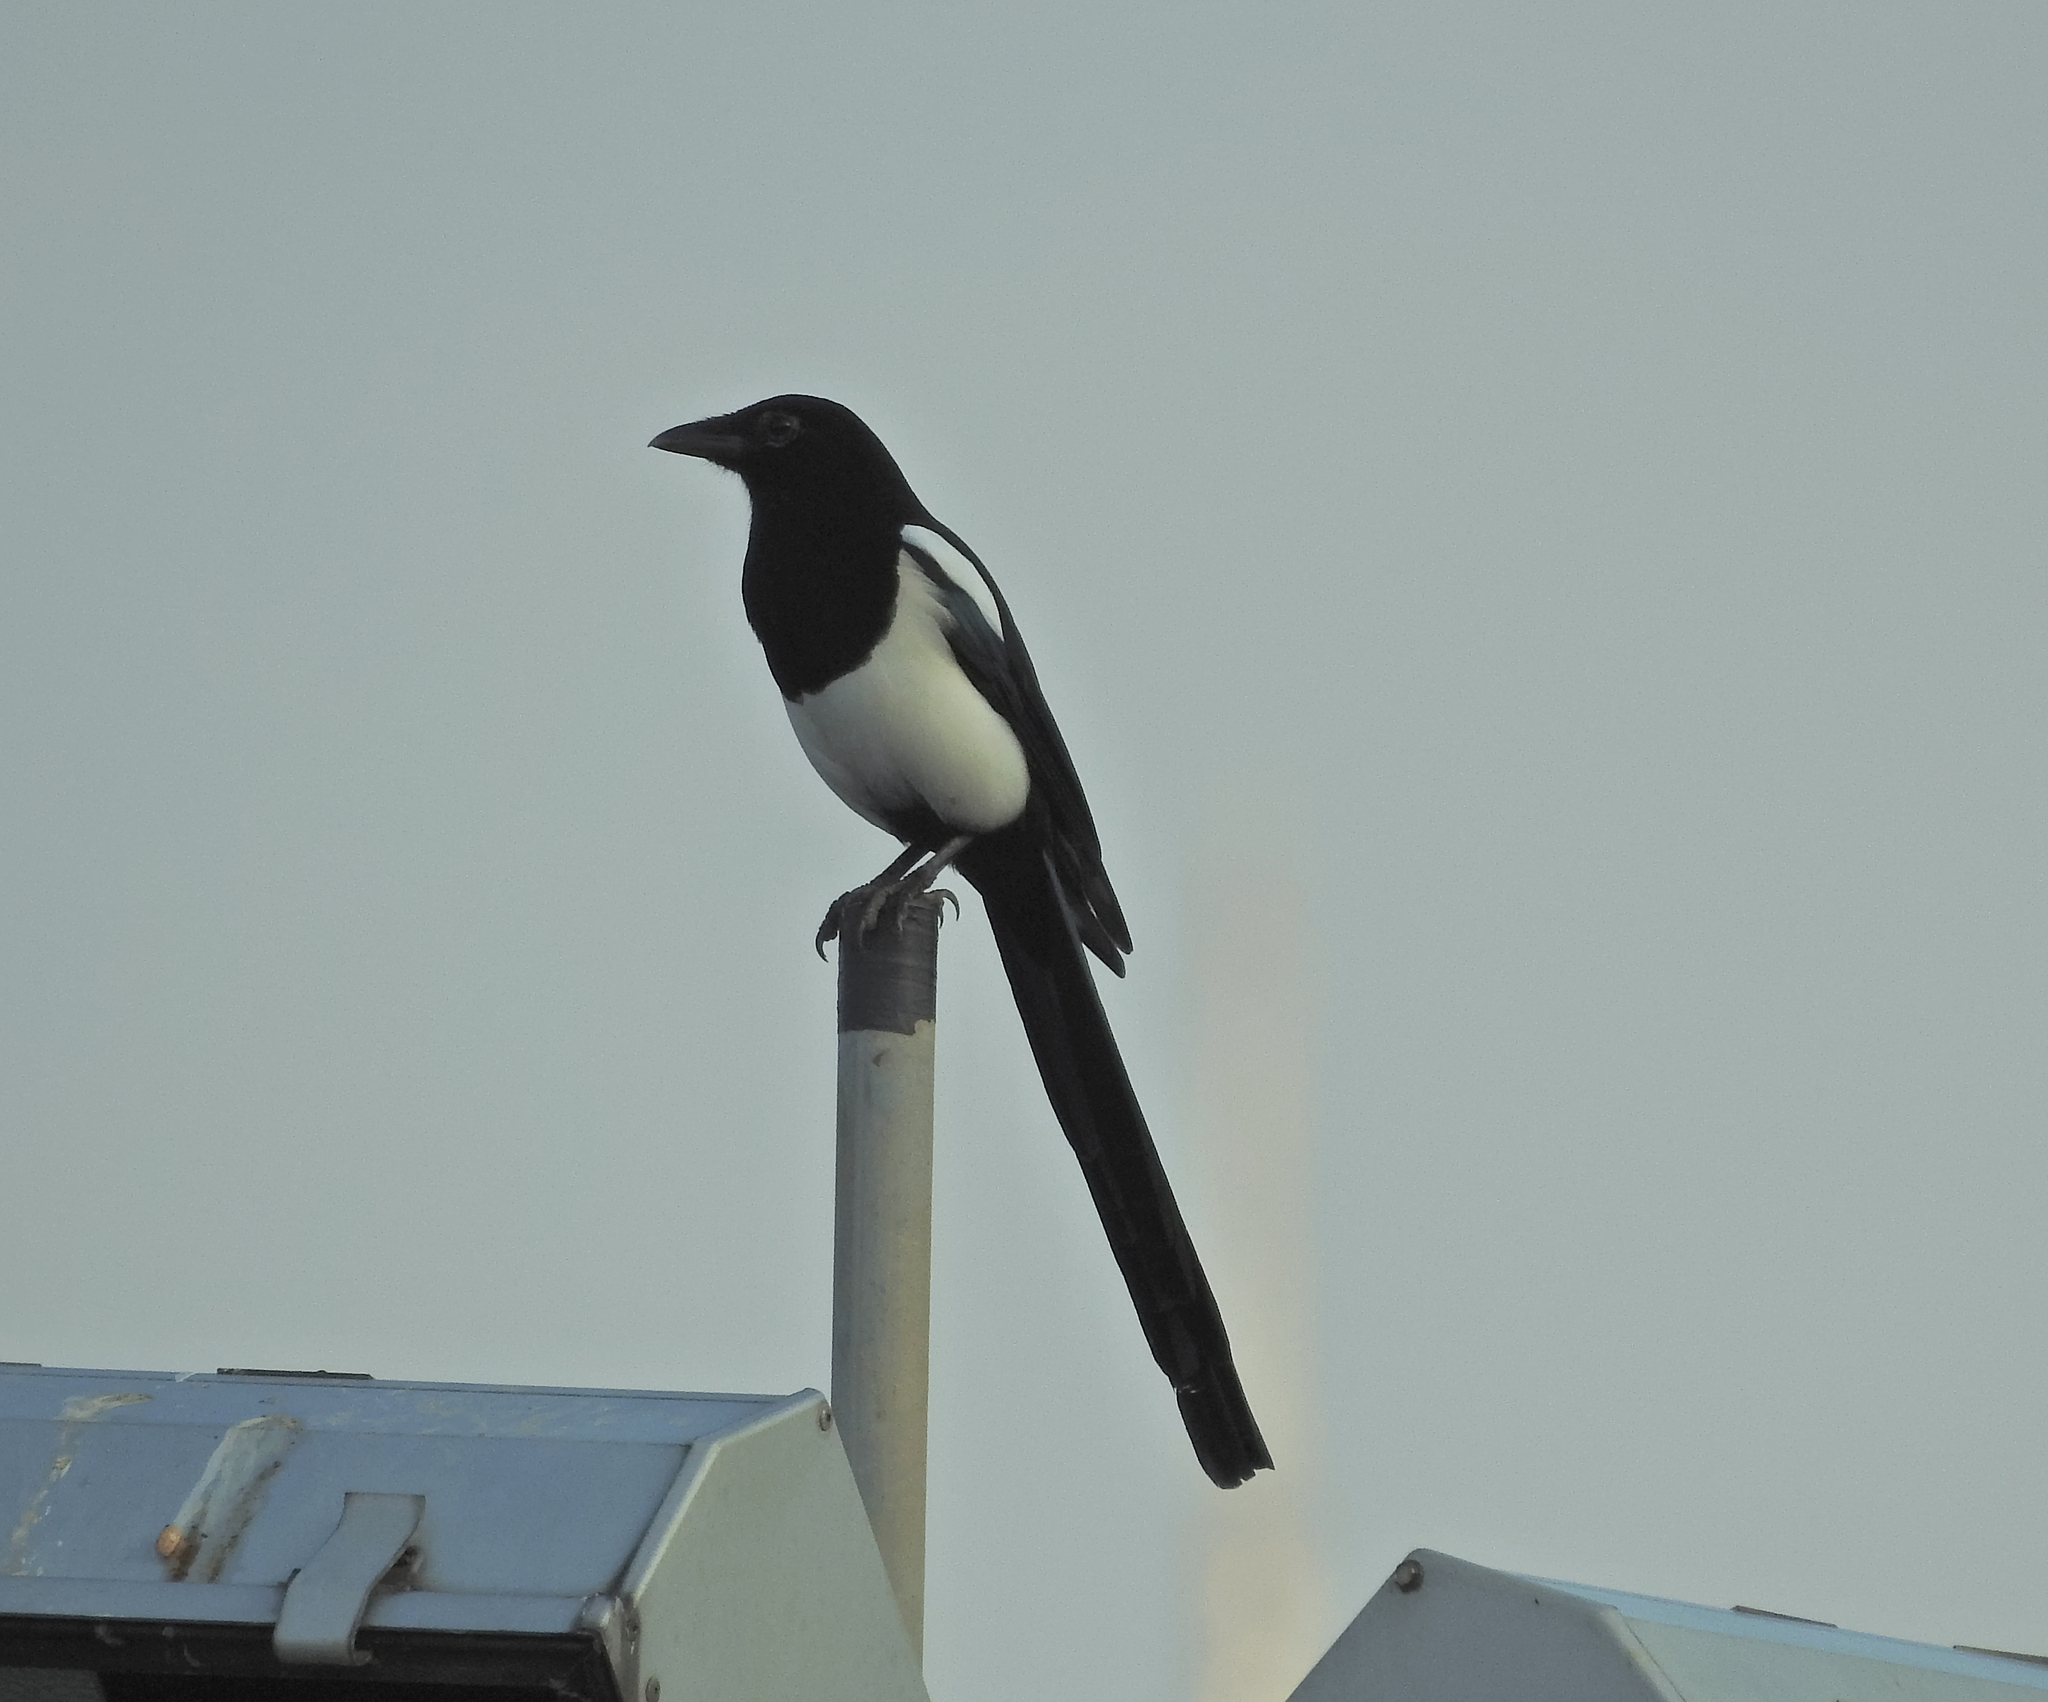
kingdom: Animalia
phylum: Chordata
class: Aves
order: Passeriformes
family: Corvidae
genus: Pica
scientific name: Pica pica
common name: Eurasian magpie
